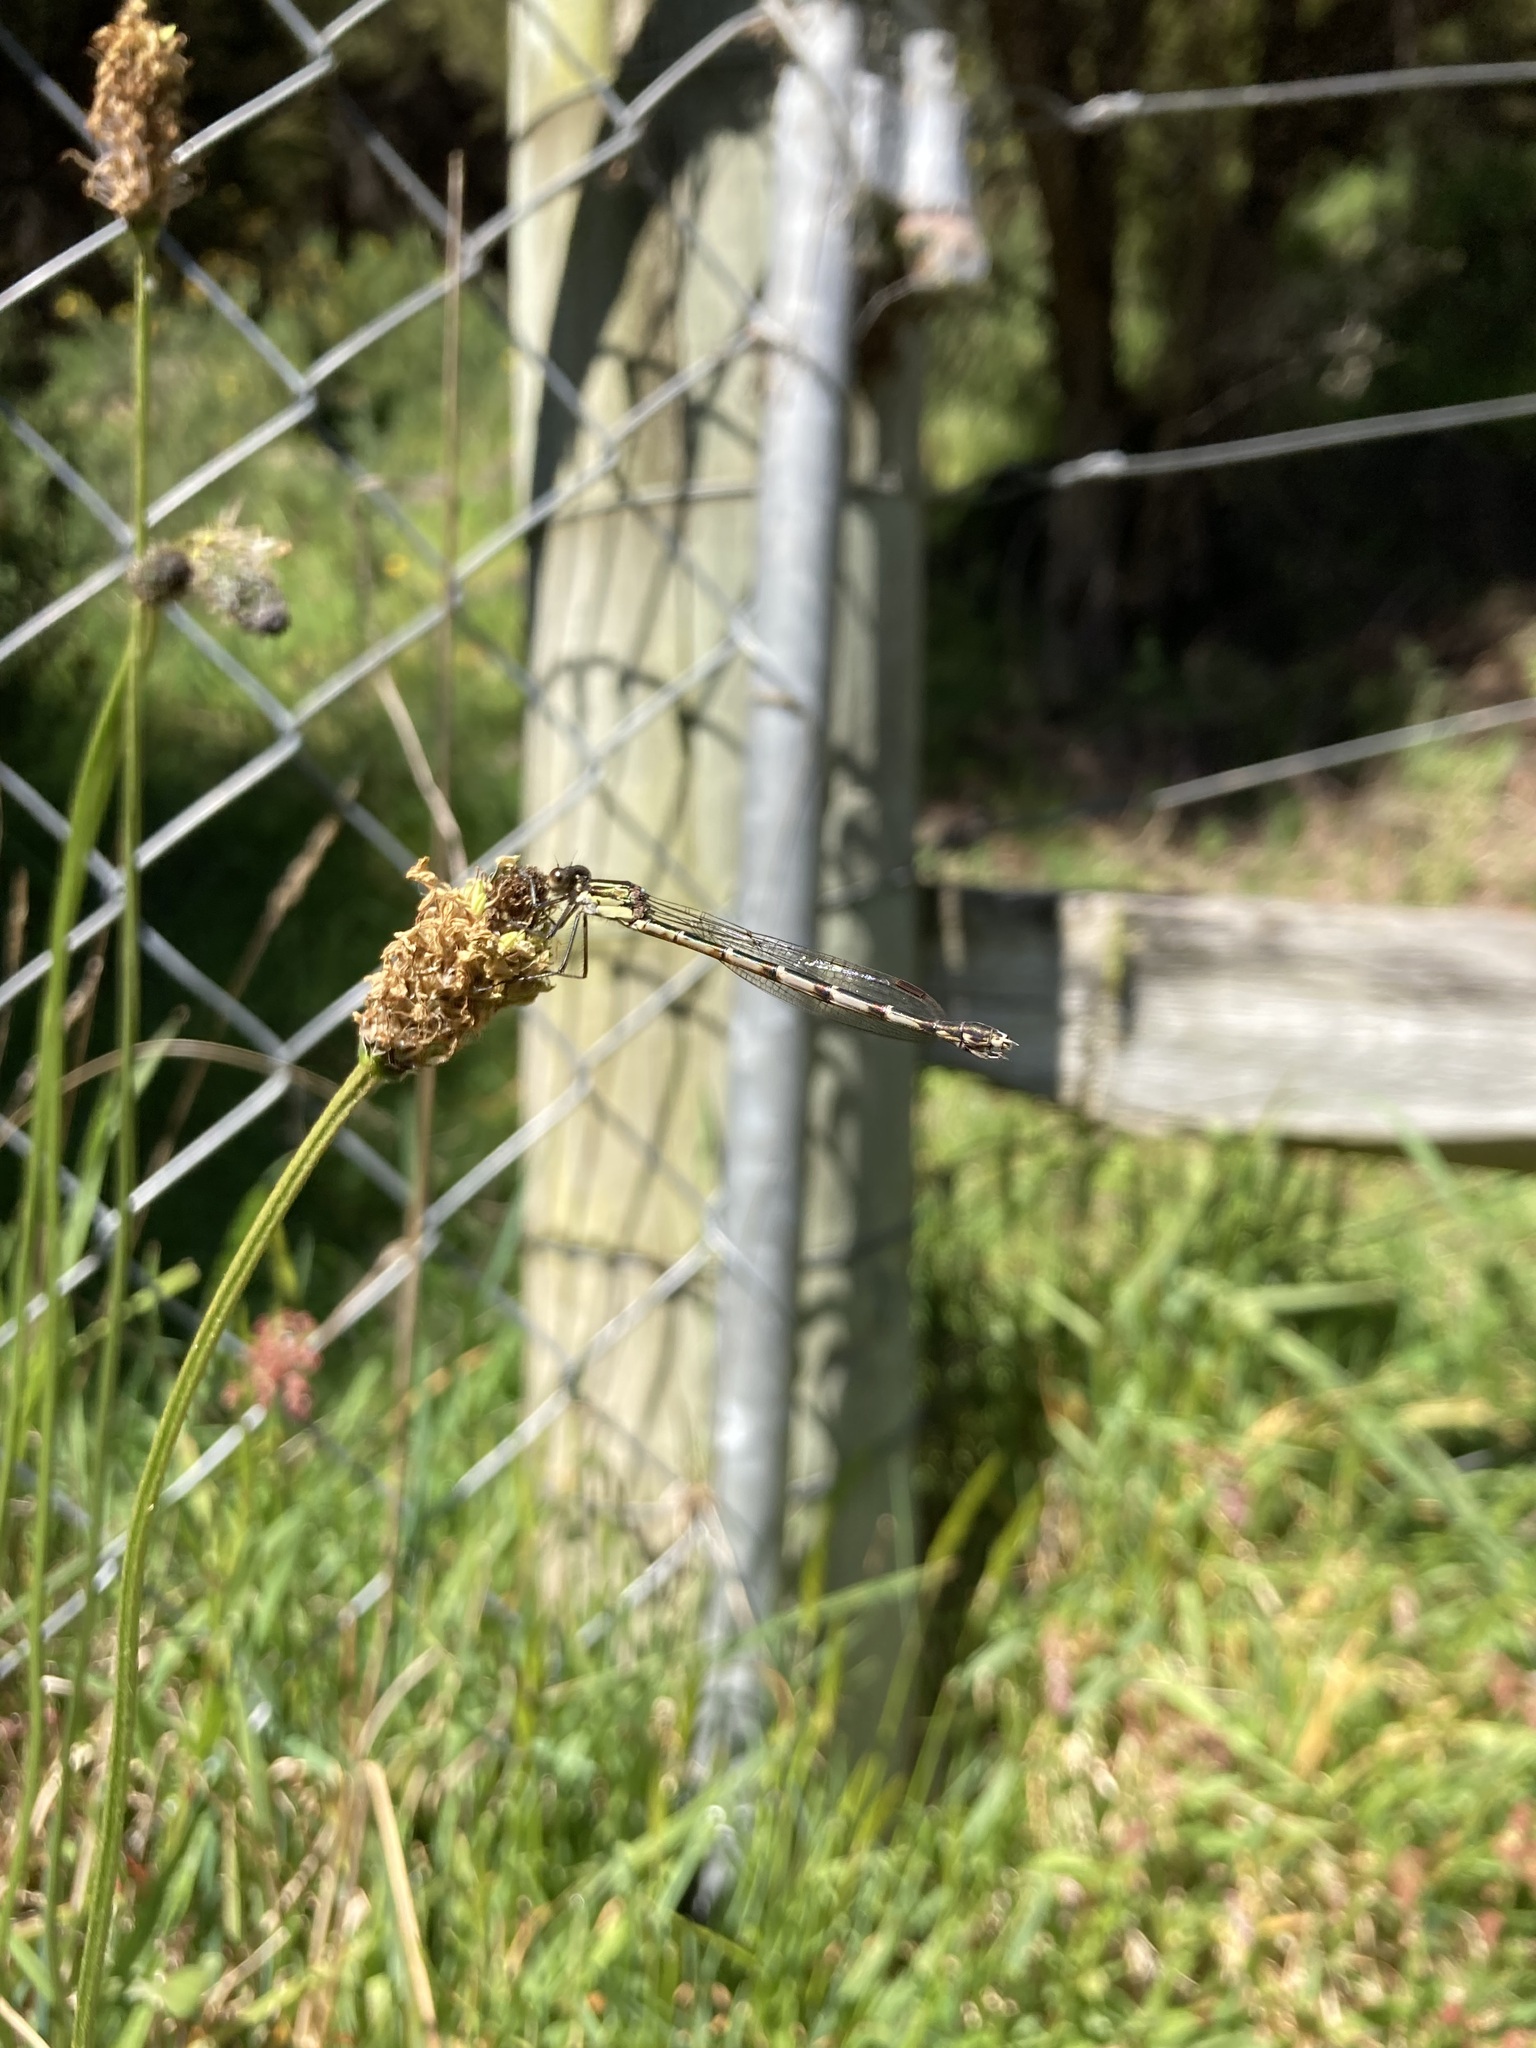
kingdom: Animalia
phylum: Arthropoda
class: Insecta
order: Odonata
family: Lestidae
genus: Austrolestes
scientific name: Austrolestes colensonis
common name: Blue damselfly
